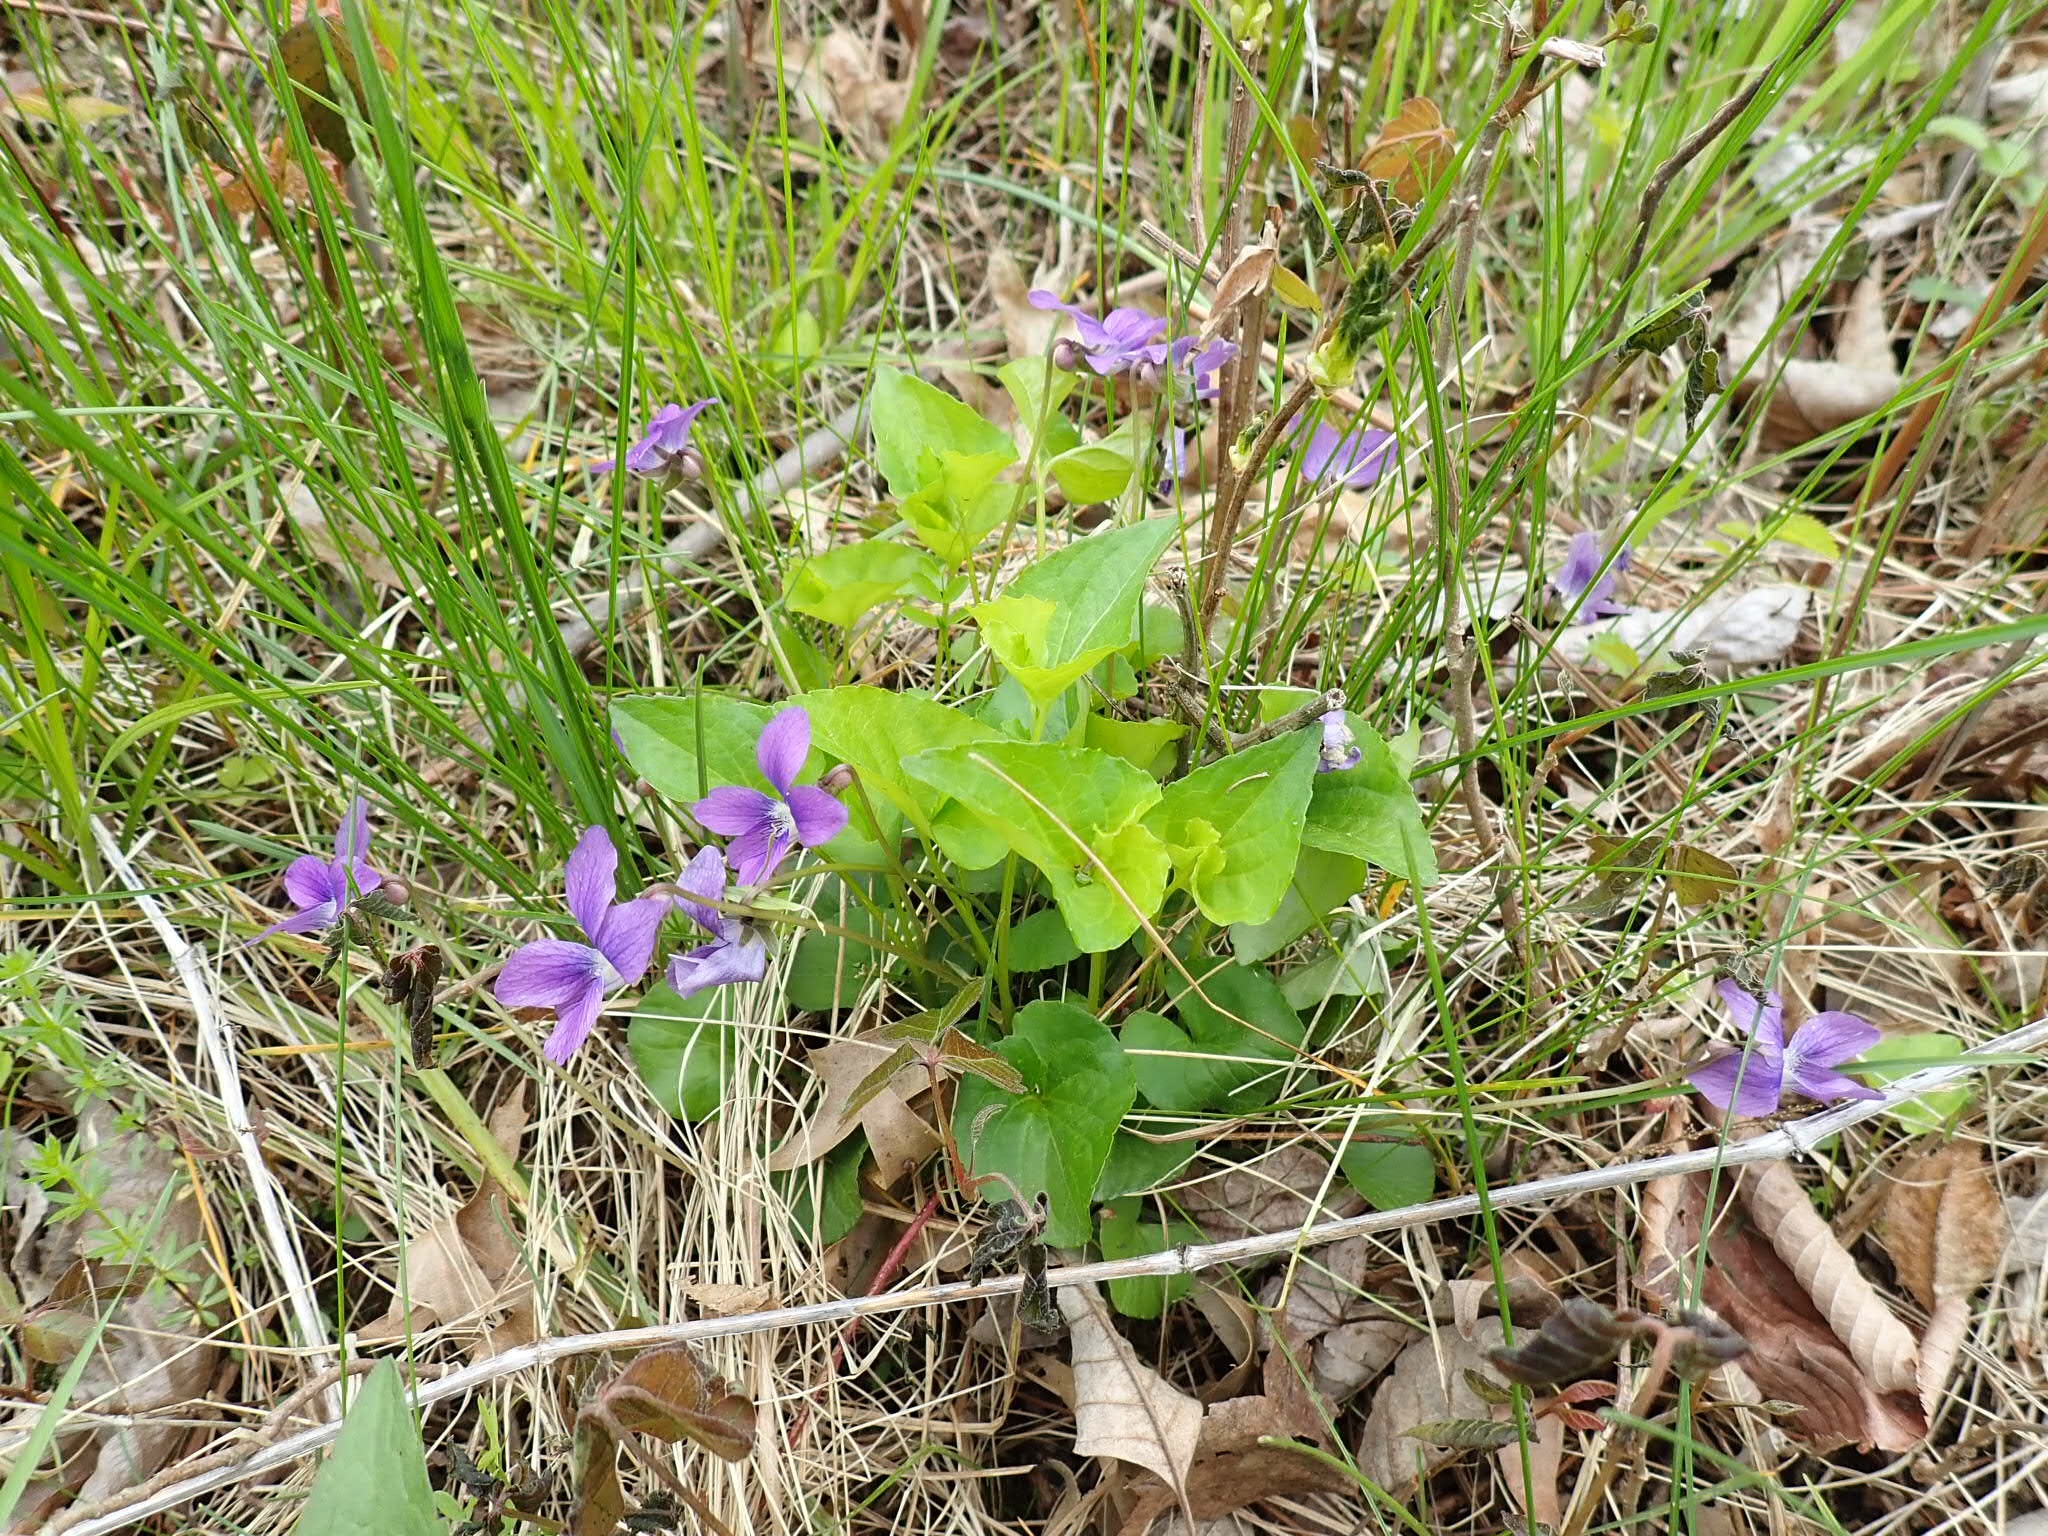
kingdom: Plantae
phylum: Tracheophyta
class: Magnoliopsida
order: Malpighiales
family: Violaceae
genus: Viola
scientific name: Viola sororia
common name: Dooryard violet
